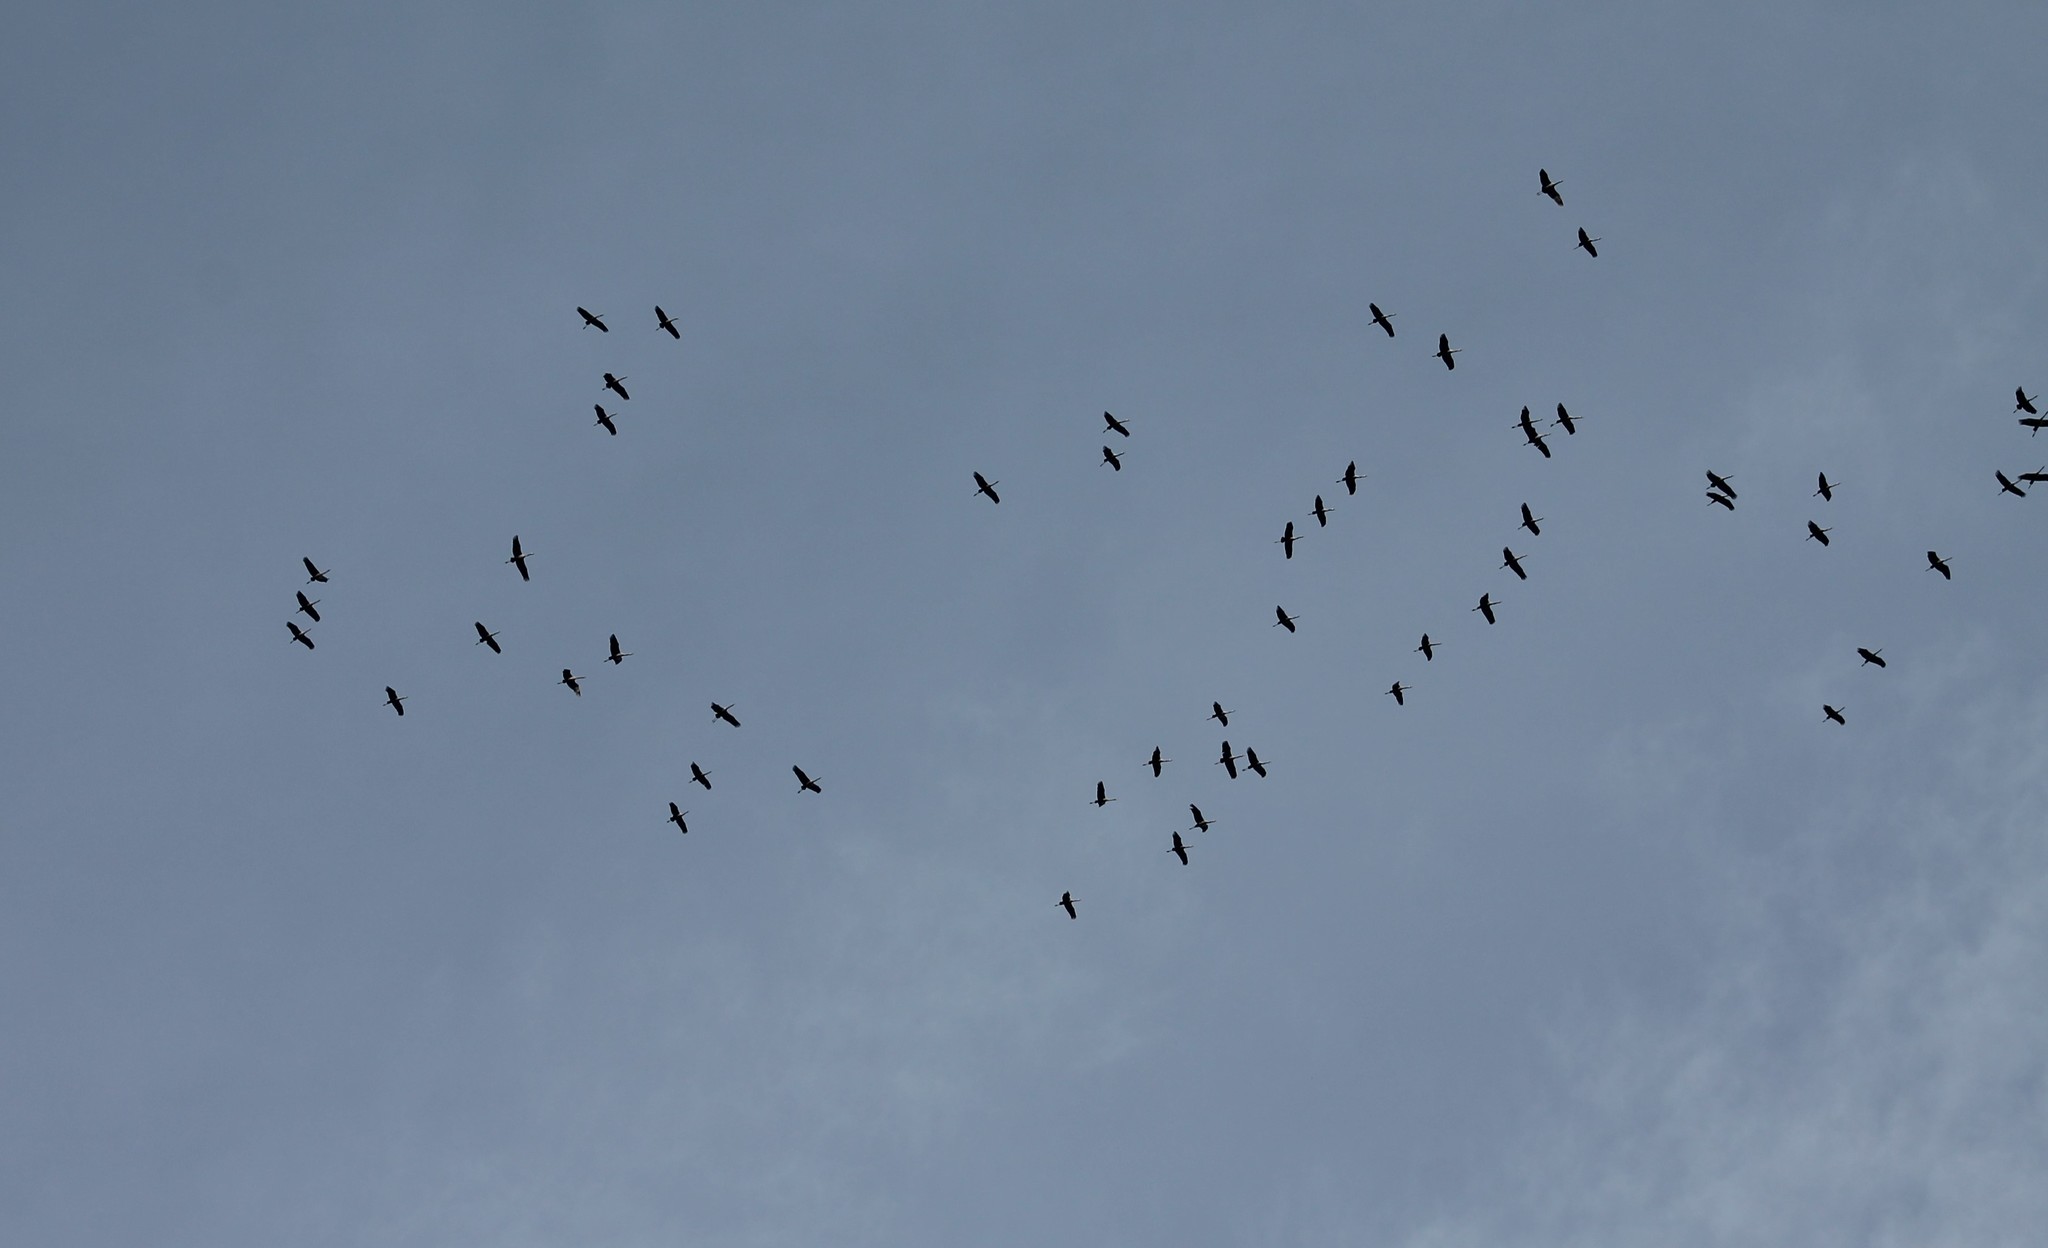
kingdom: Animalia
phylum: Chordata
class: Aves
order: Gruiformes
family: Gruidae
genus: Grus
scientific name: Grus grus
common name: Common crane
